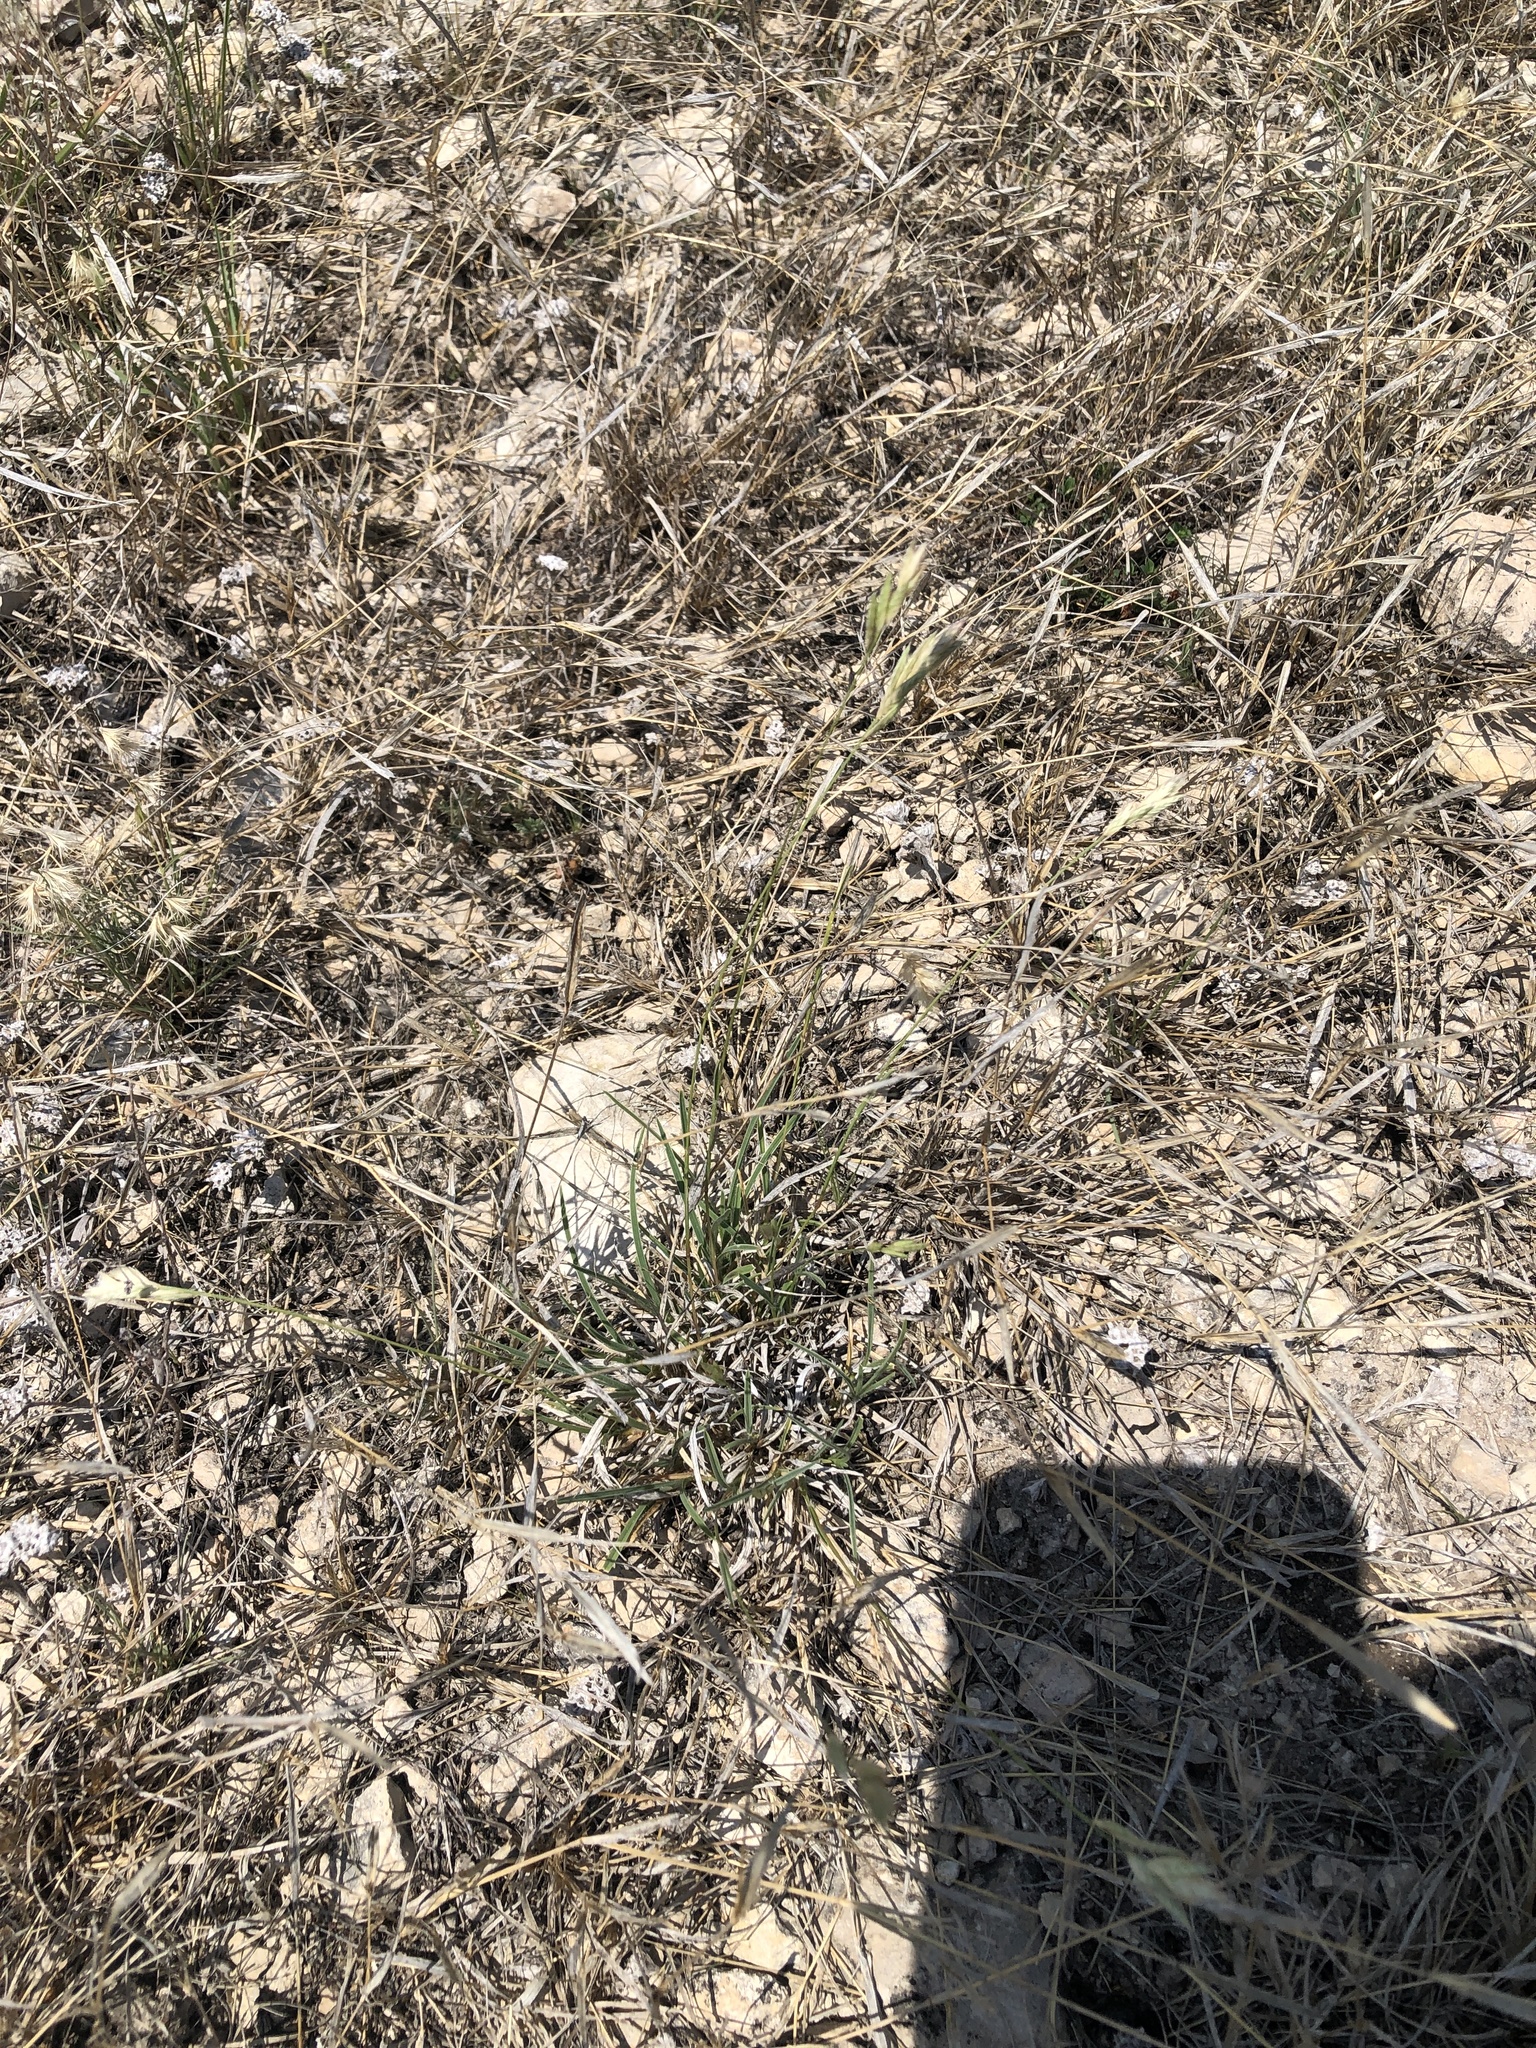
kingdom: Plantae
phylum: Tracheophyta
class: Liliopsida
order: Poales
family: Poaceae
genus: Erioneuron
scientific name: Erioneuron pilosum
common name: Hairy woolly grass
